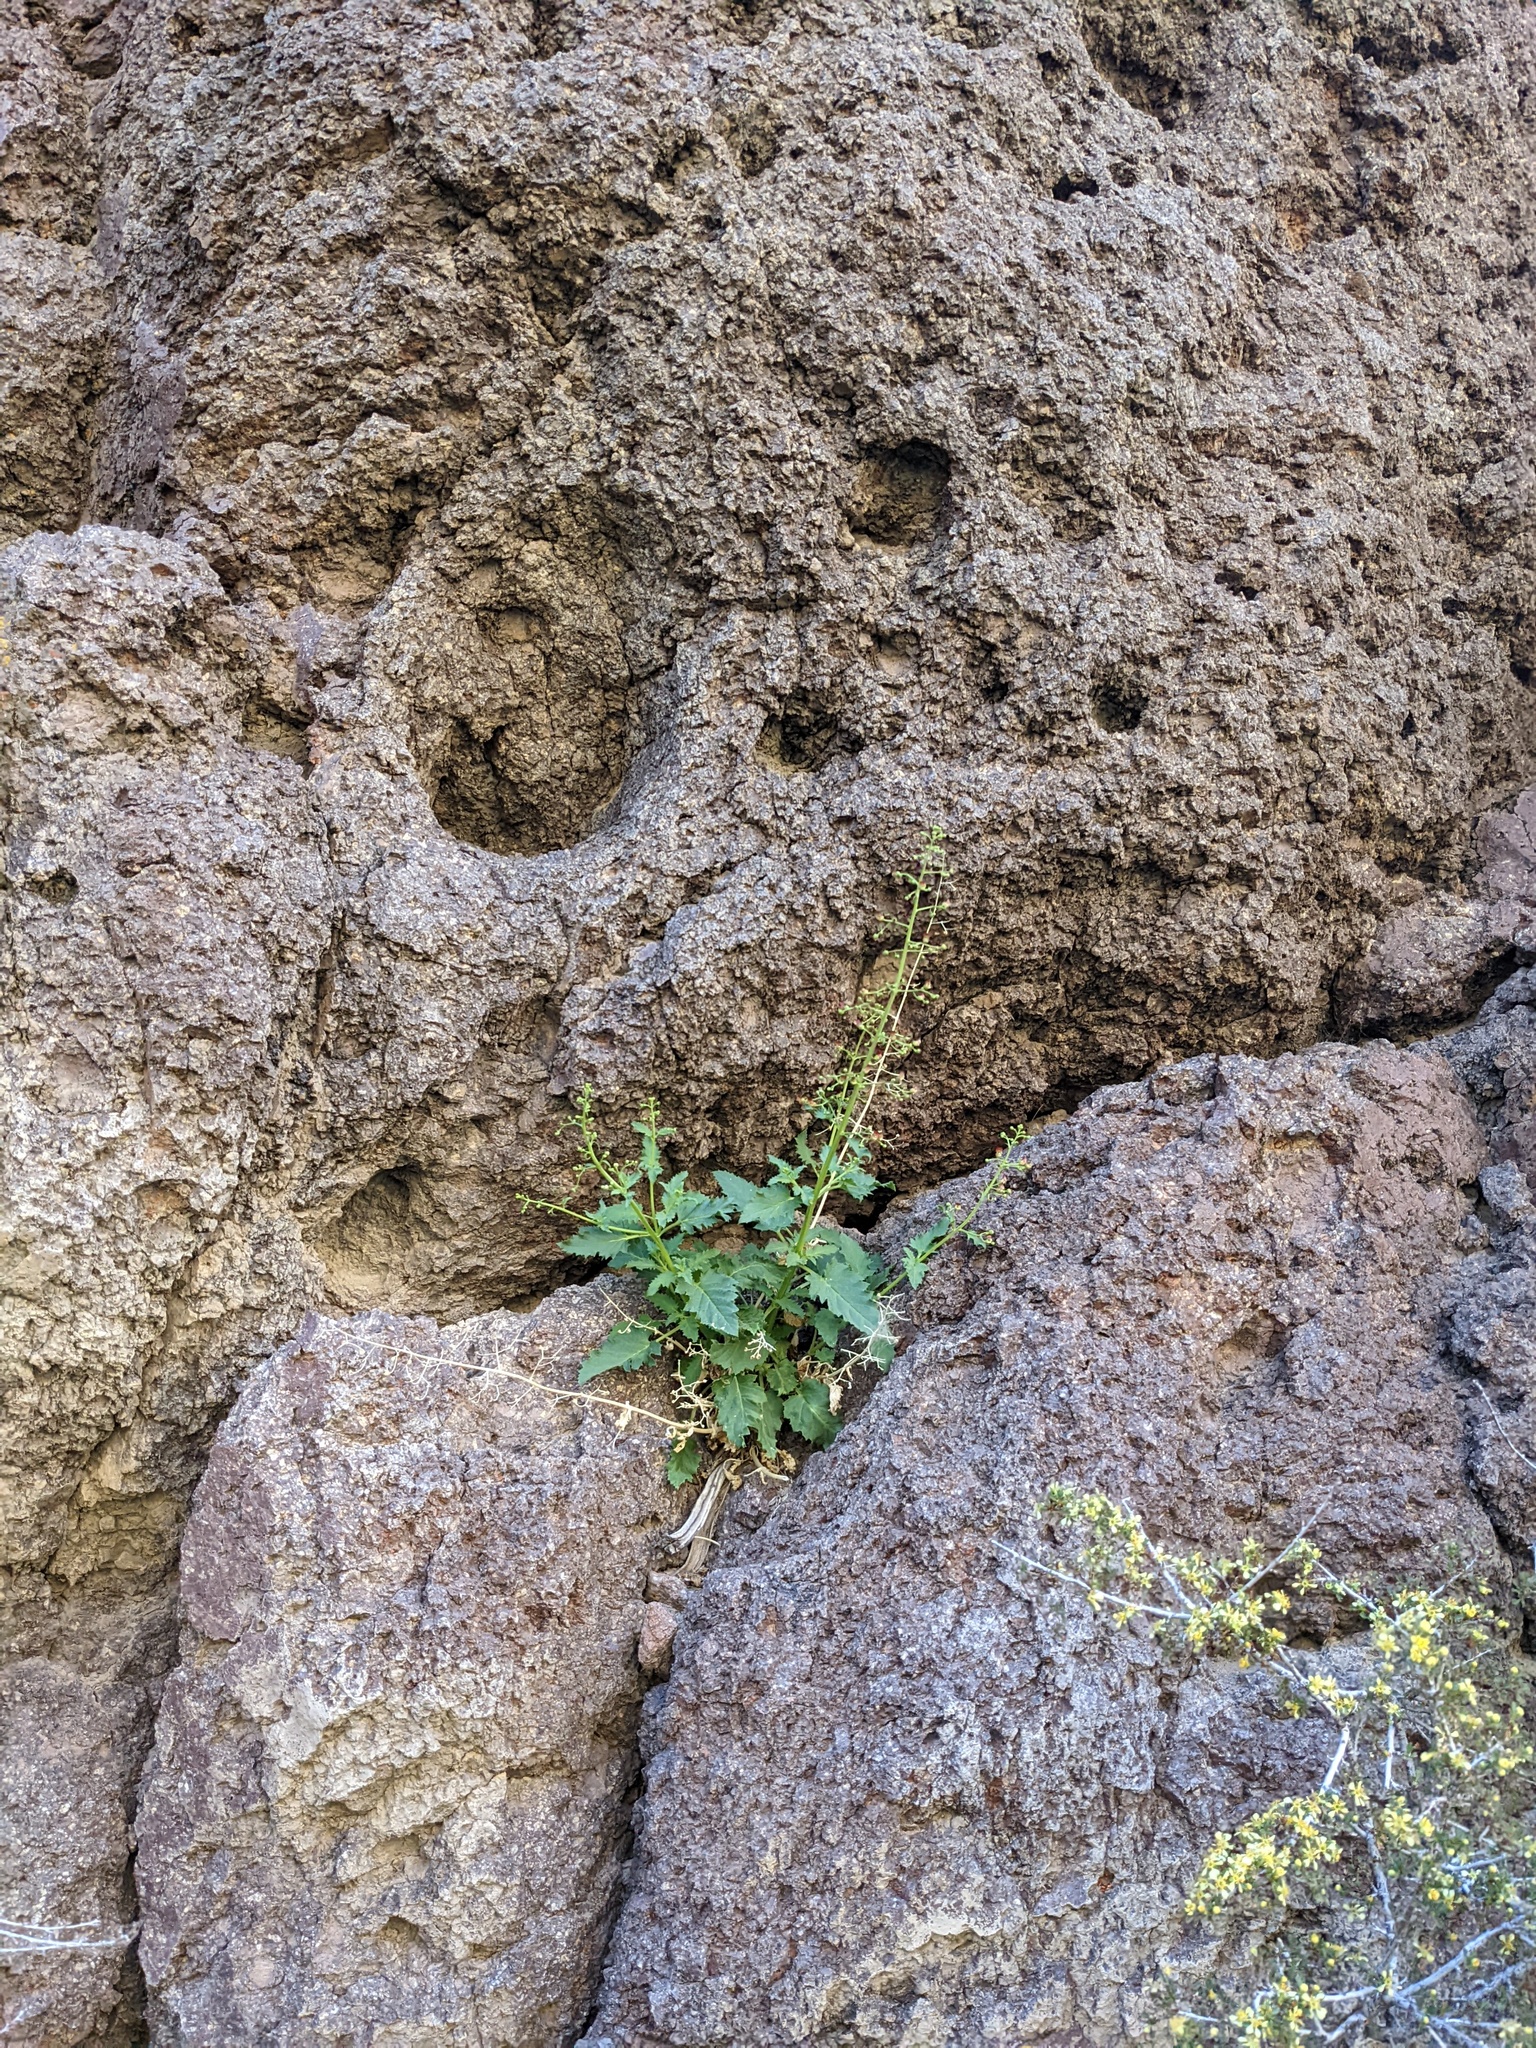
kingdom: Plantae
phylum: Tracheophyta
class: Magnoliopsida
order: Lamiales
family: Scrophulariaceae
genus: Scrophularia
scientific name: Scrophularia desertorum
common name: Desert figwort
